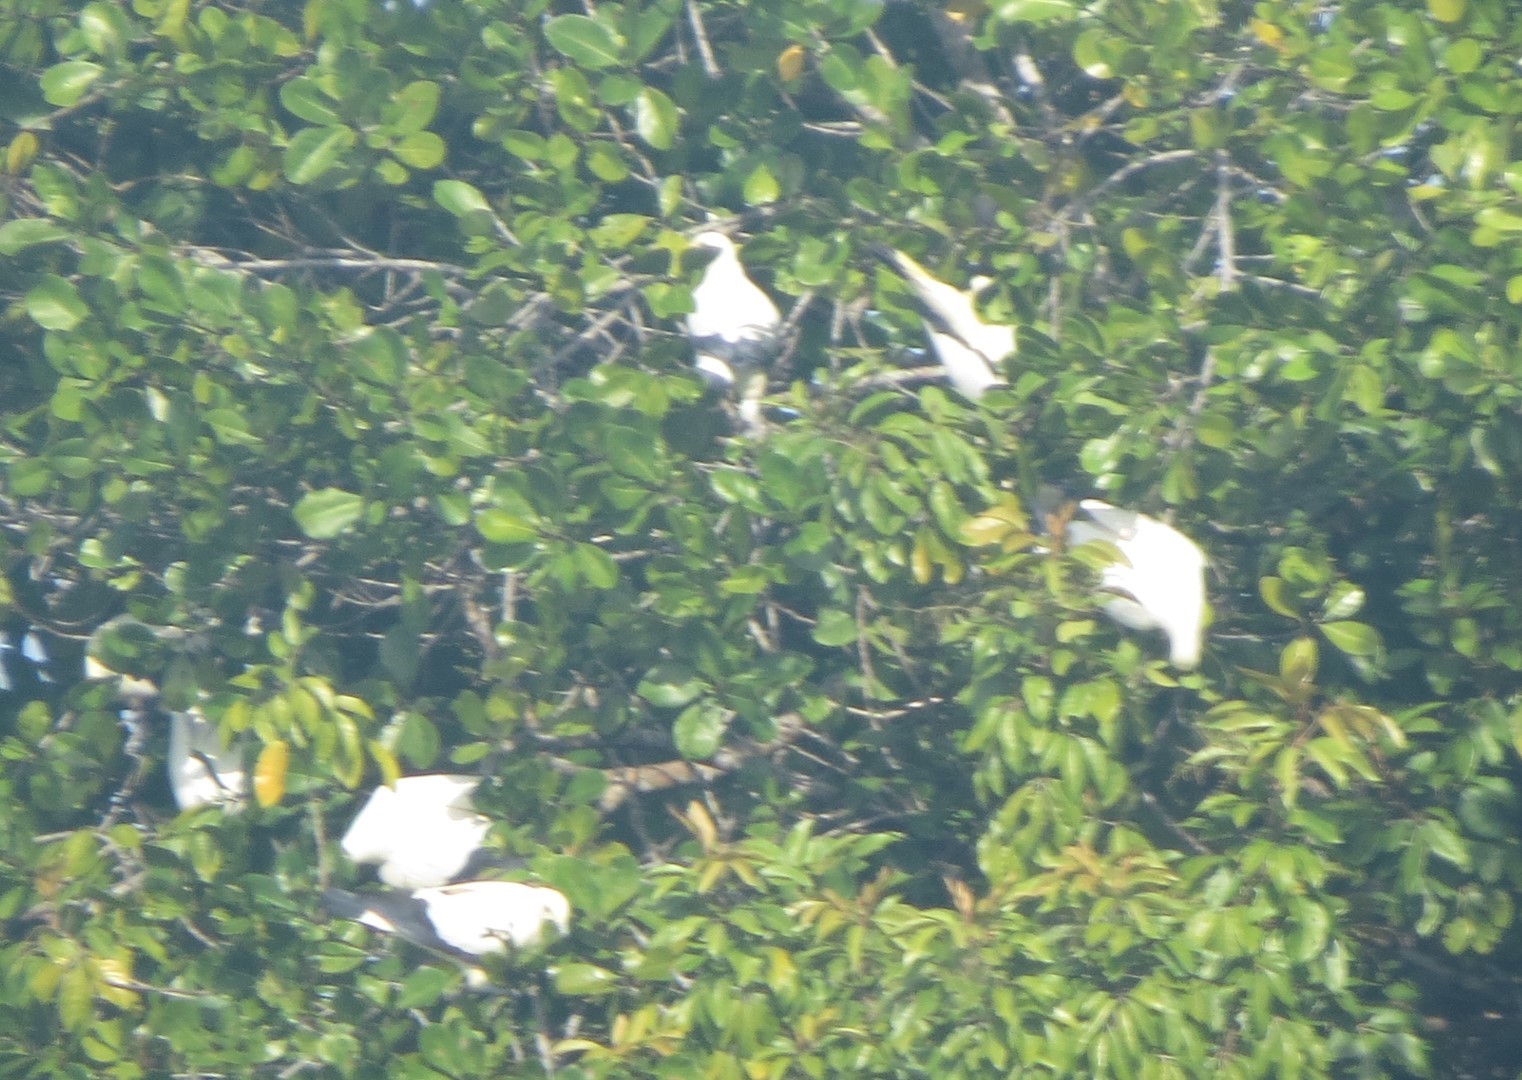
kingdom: Animalia
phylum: Chordata
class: Aves
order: Columbiformes
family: Columbidae
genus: Ducula
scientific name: Ducula bicolor
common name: Pied imperial pigeon
